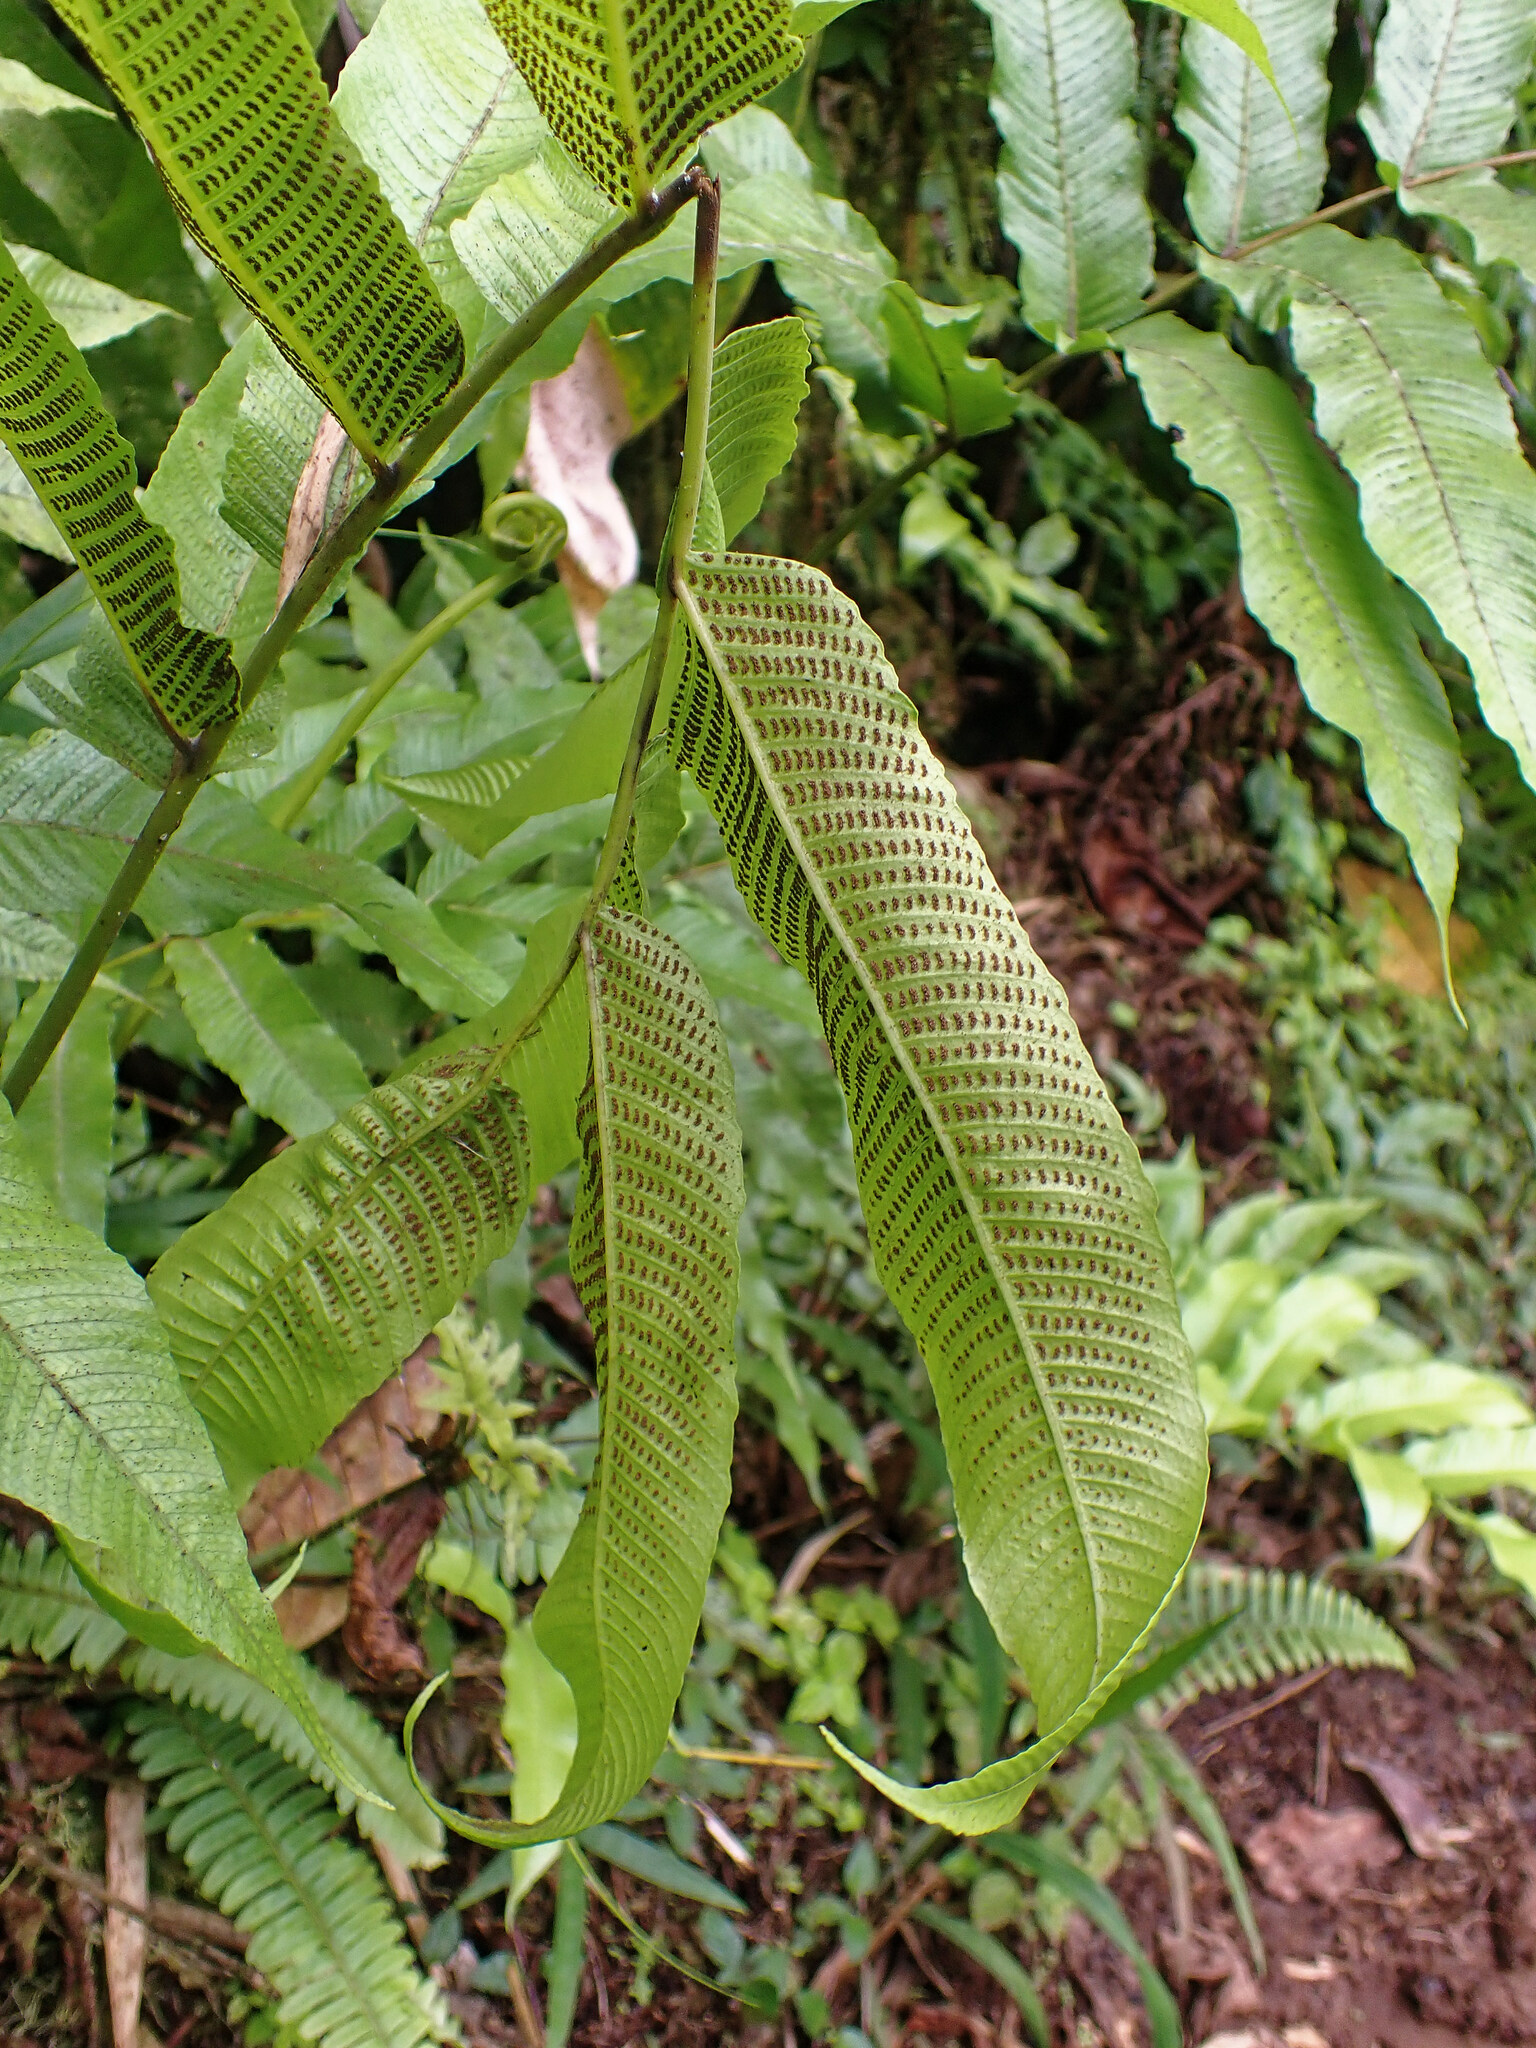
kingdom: Plantae
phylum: Tracheophyta
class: Polypodiopsida
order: Polypodiales
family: Thelypteridaceae
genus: Meniscium
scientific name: Meniscium reticulatum
